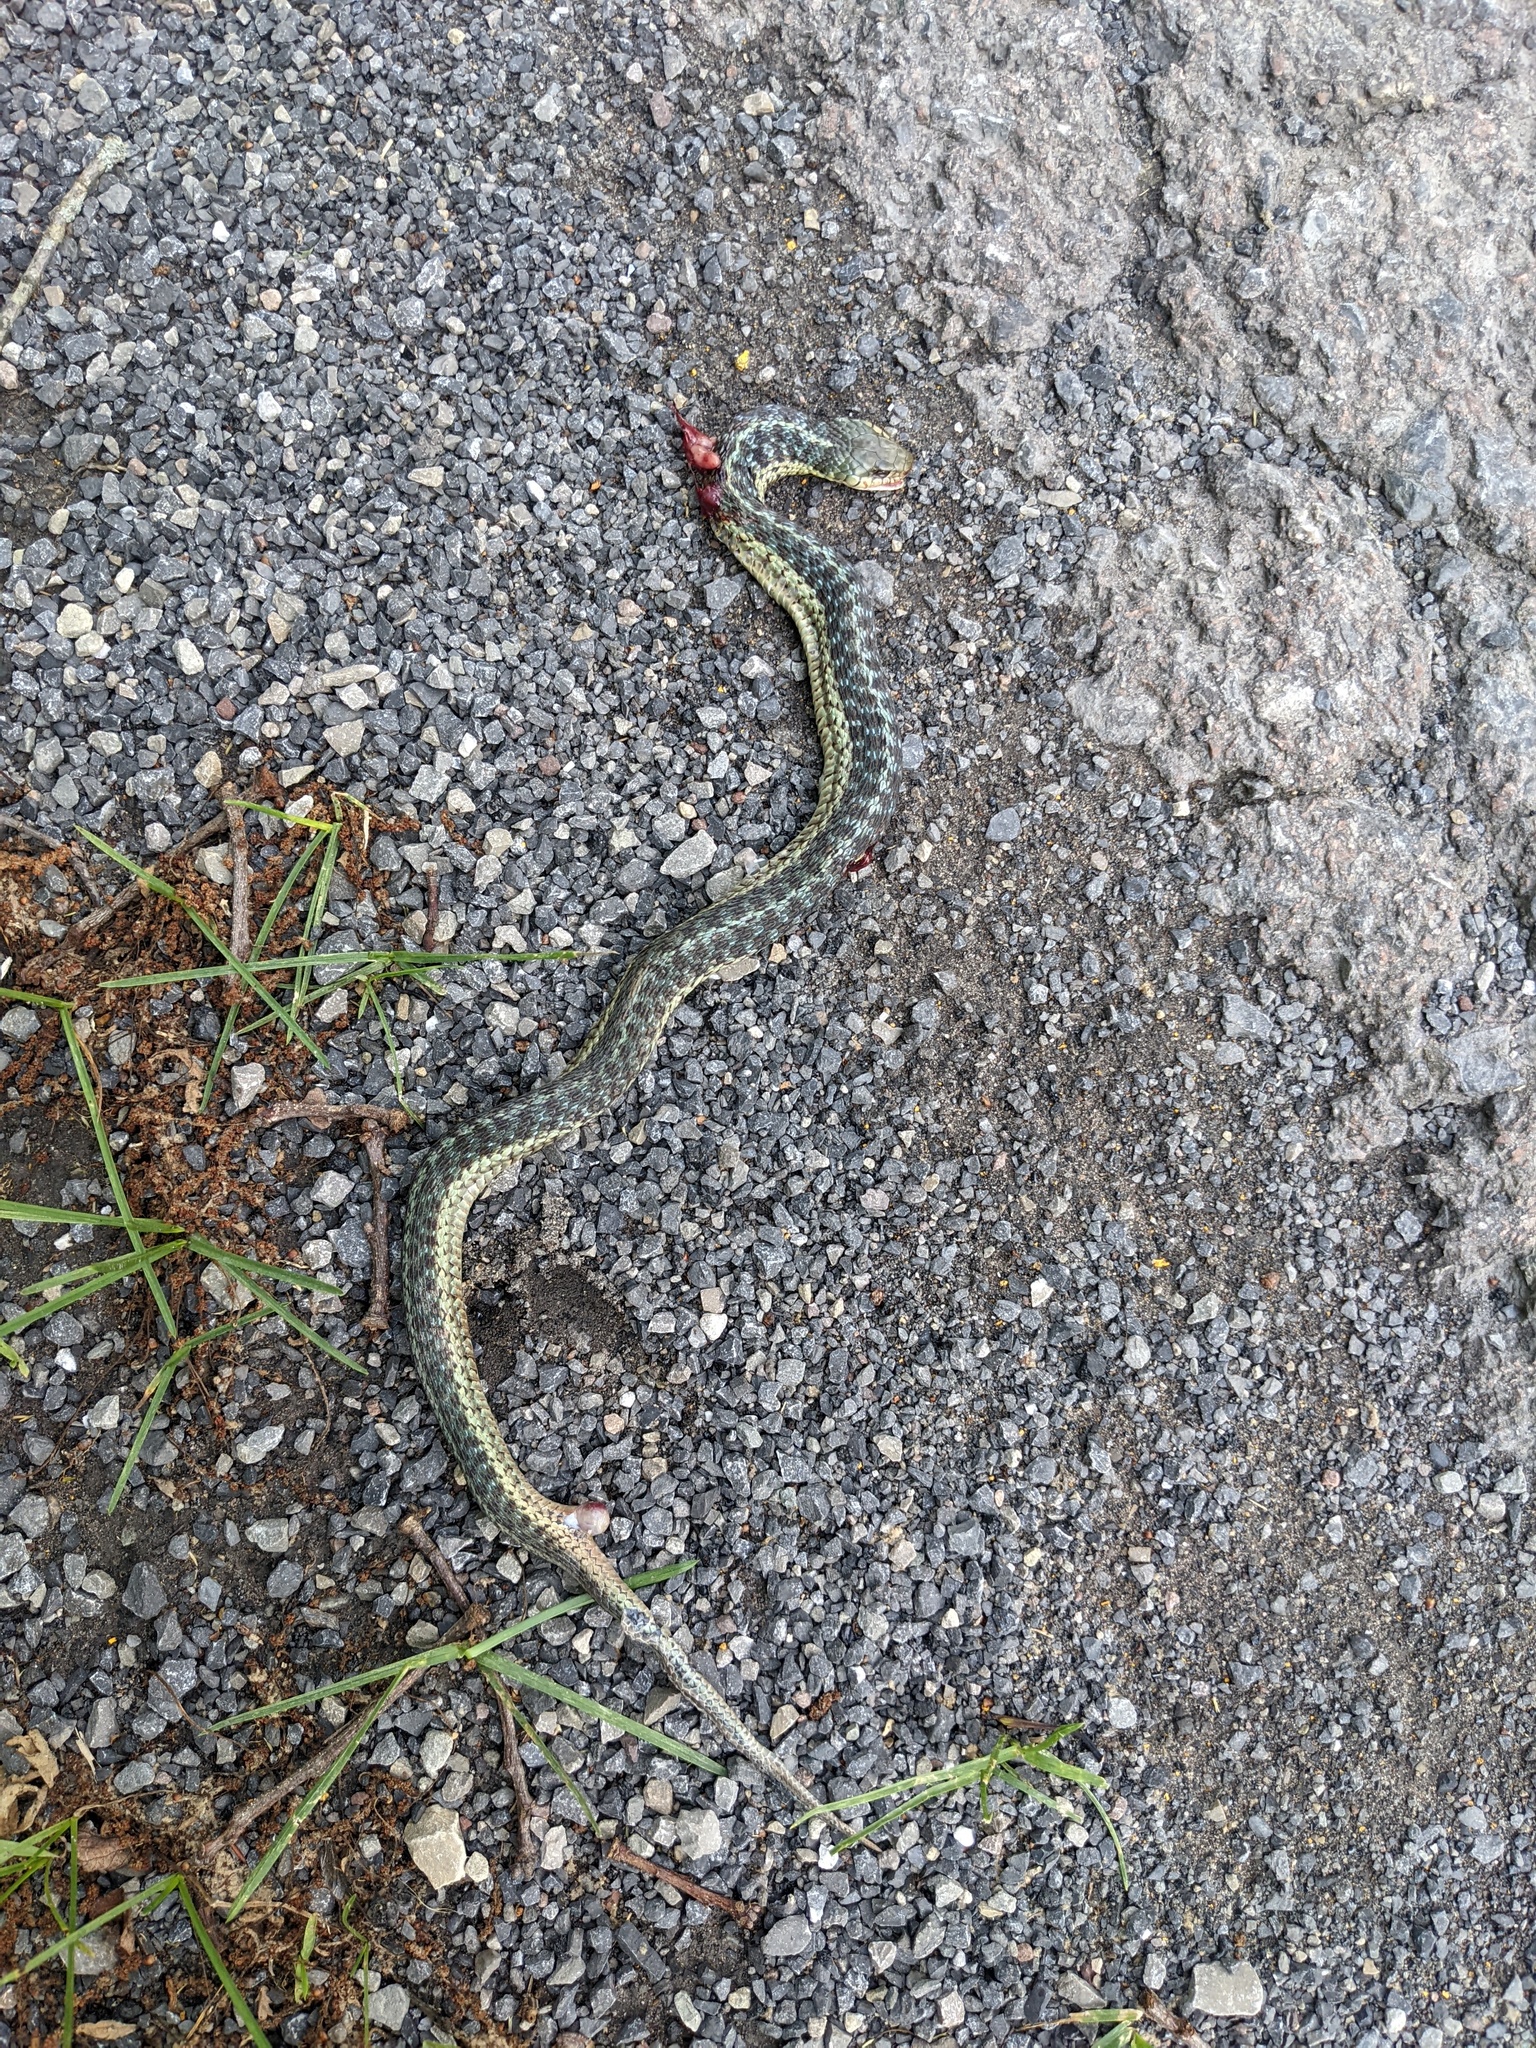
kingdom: Animalia
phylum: Chordata
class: Squamata
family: Colubridae
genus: Thamnophis
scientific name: Thamnophis sirtalis
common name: Common garter snake
